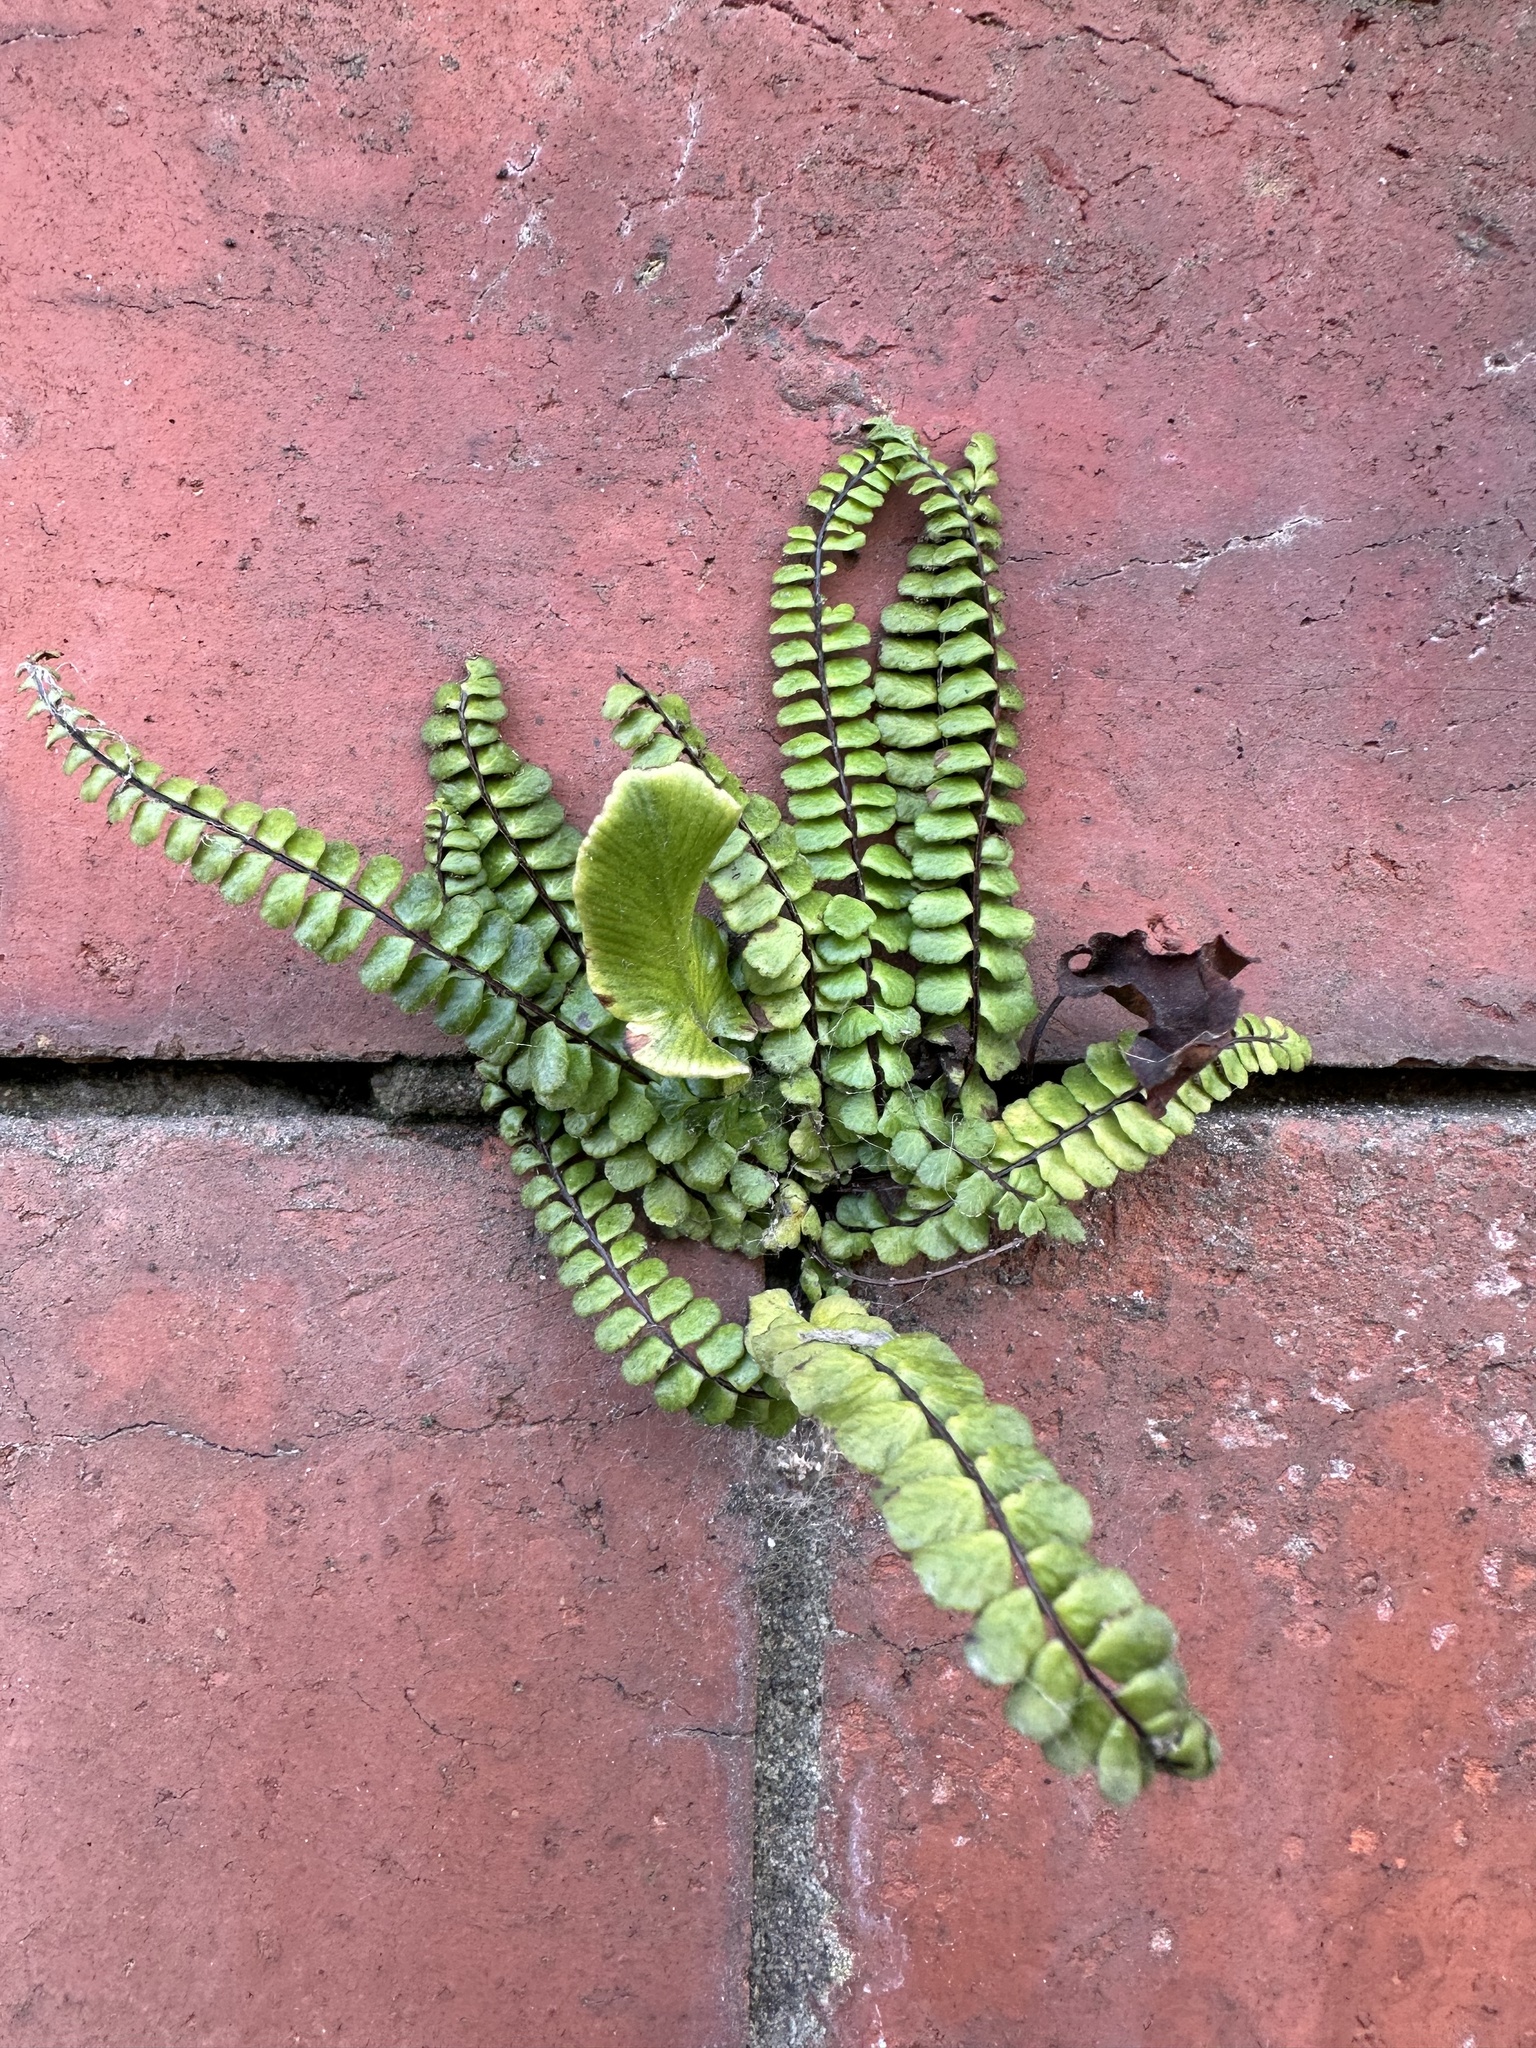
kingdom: Plantae
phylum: Tracheophyta
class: Polypodiopsida
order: Polypodiales
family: Aspleniaceae
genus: Asplenium
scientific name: Asplenium trichomanes
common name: Maidenhair spleenwort
